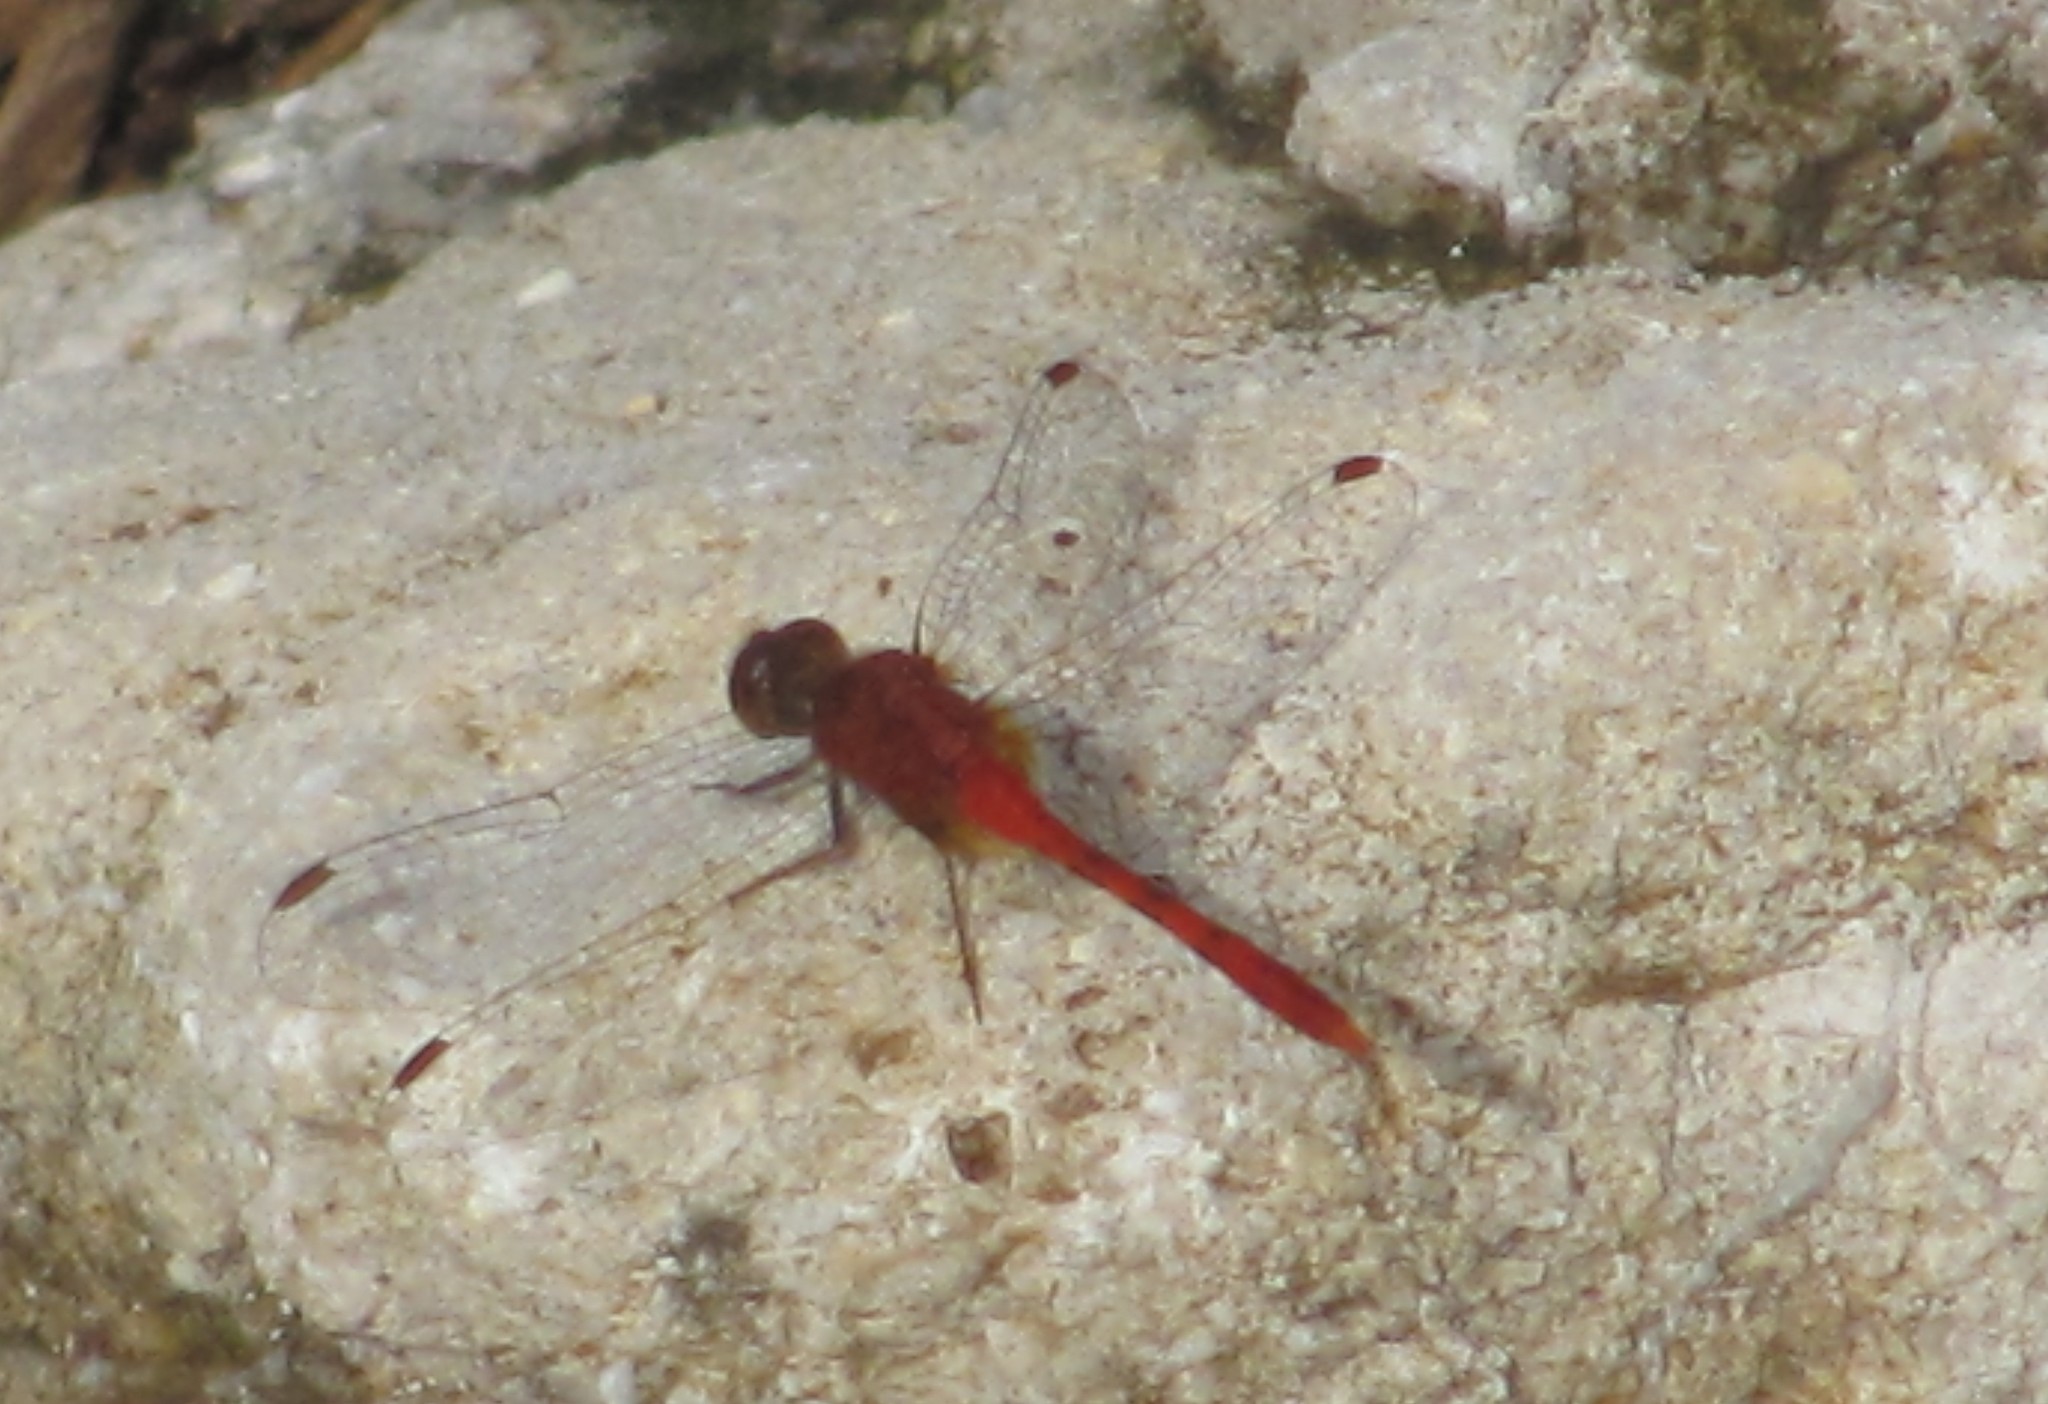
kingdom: Animalia
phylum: Arthropoda
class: Insecta
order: Odonata
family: Libellulidae
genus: Diplacodes
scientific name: Diplacodes bipunctata
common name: Red percher dragonfly
